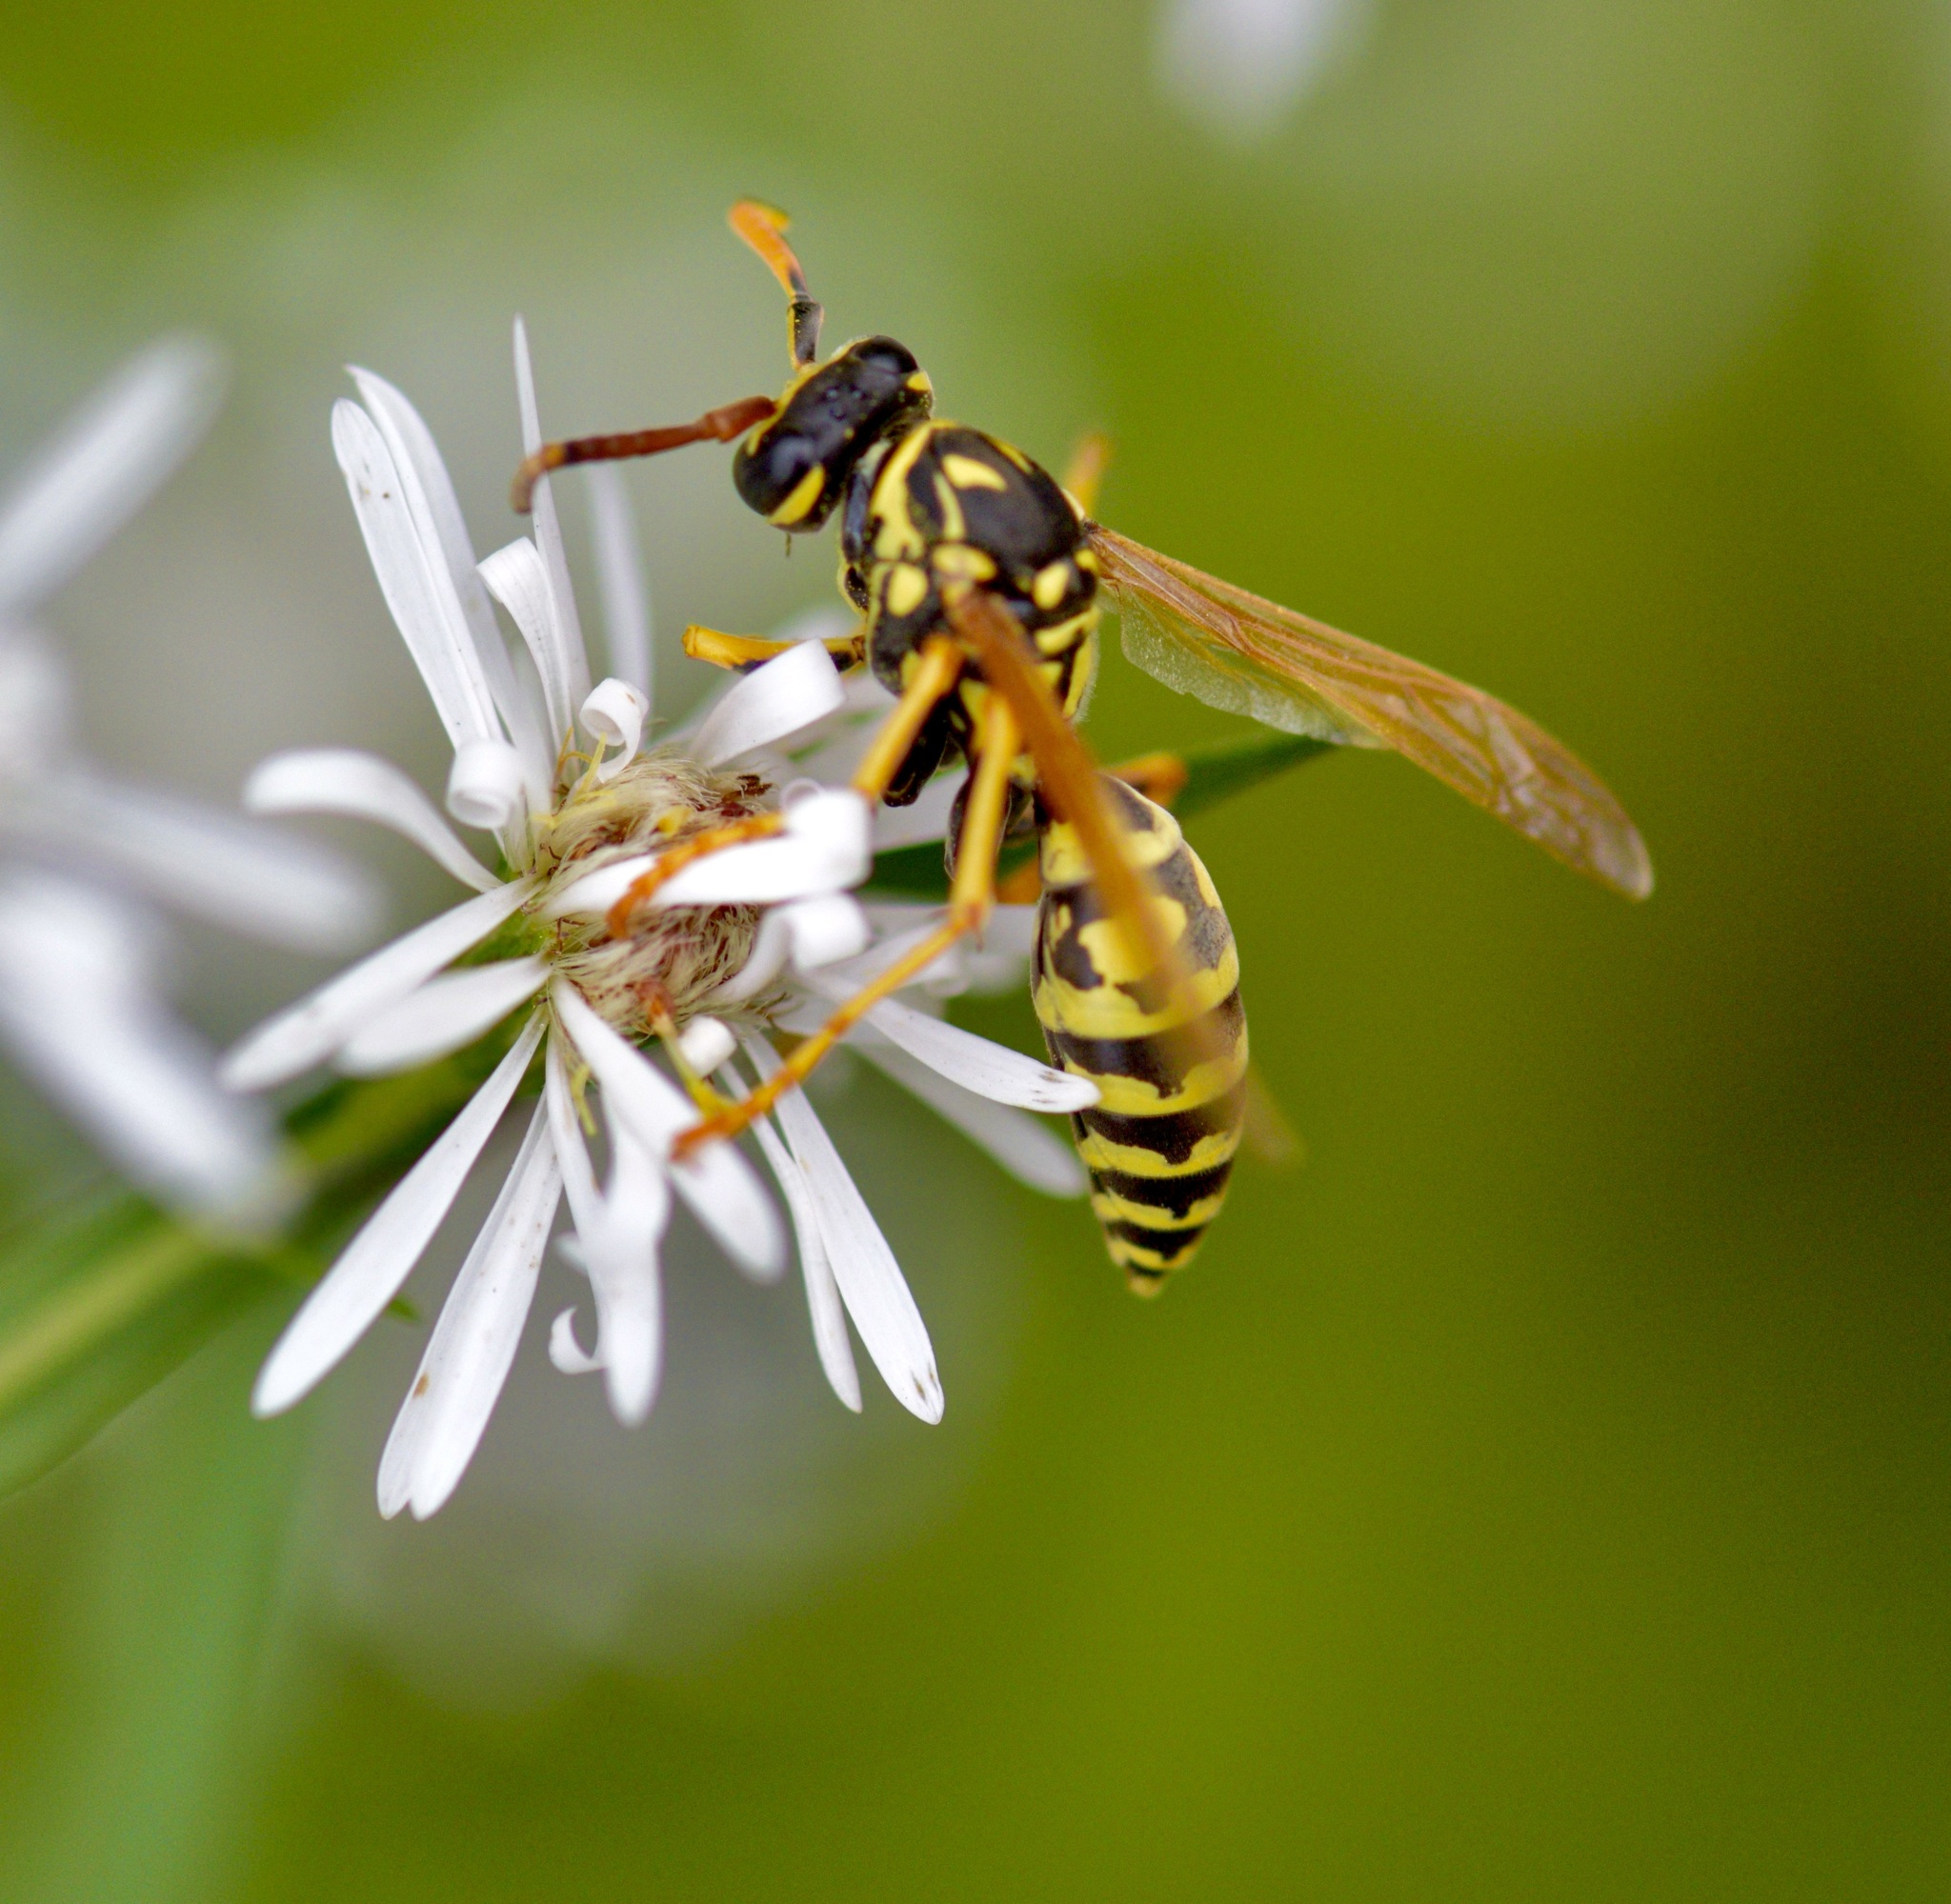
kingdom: Animalia
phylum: Arthropoda
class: Insecta
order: Hymenoptera
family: Eumenidae
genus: Polistes
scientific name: Polistes dominula
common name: Paper wasp
